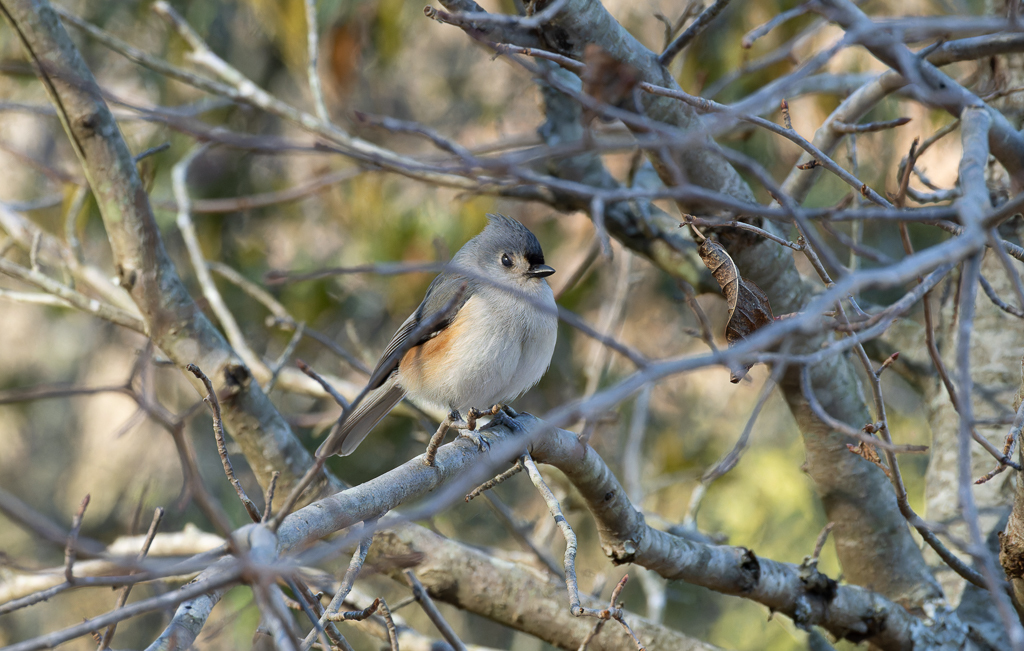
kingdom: Animalia
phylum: Chordata
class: Aves
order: Passeriformes
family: Paridae
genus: Baeolophus
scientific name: Baeolophus bicolor
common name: Tufted titmouse
